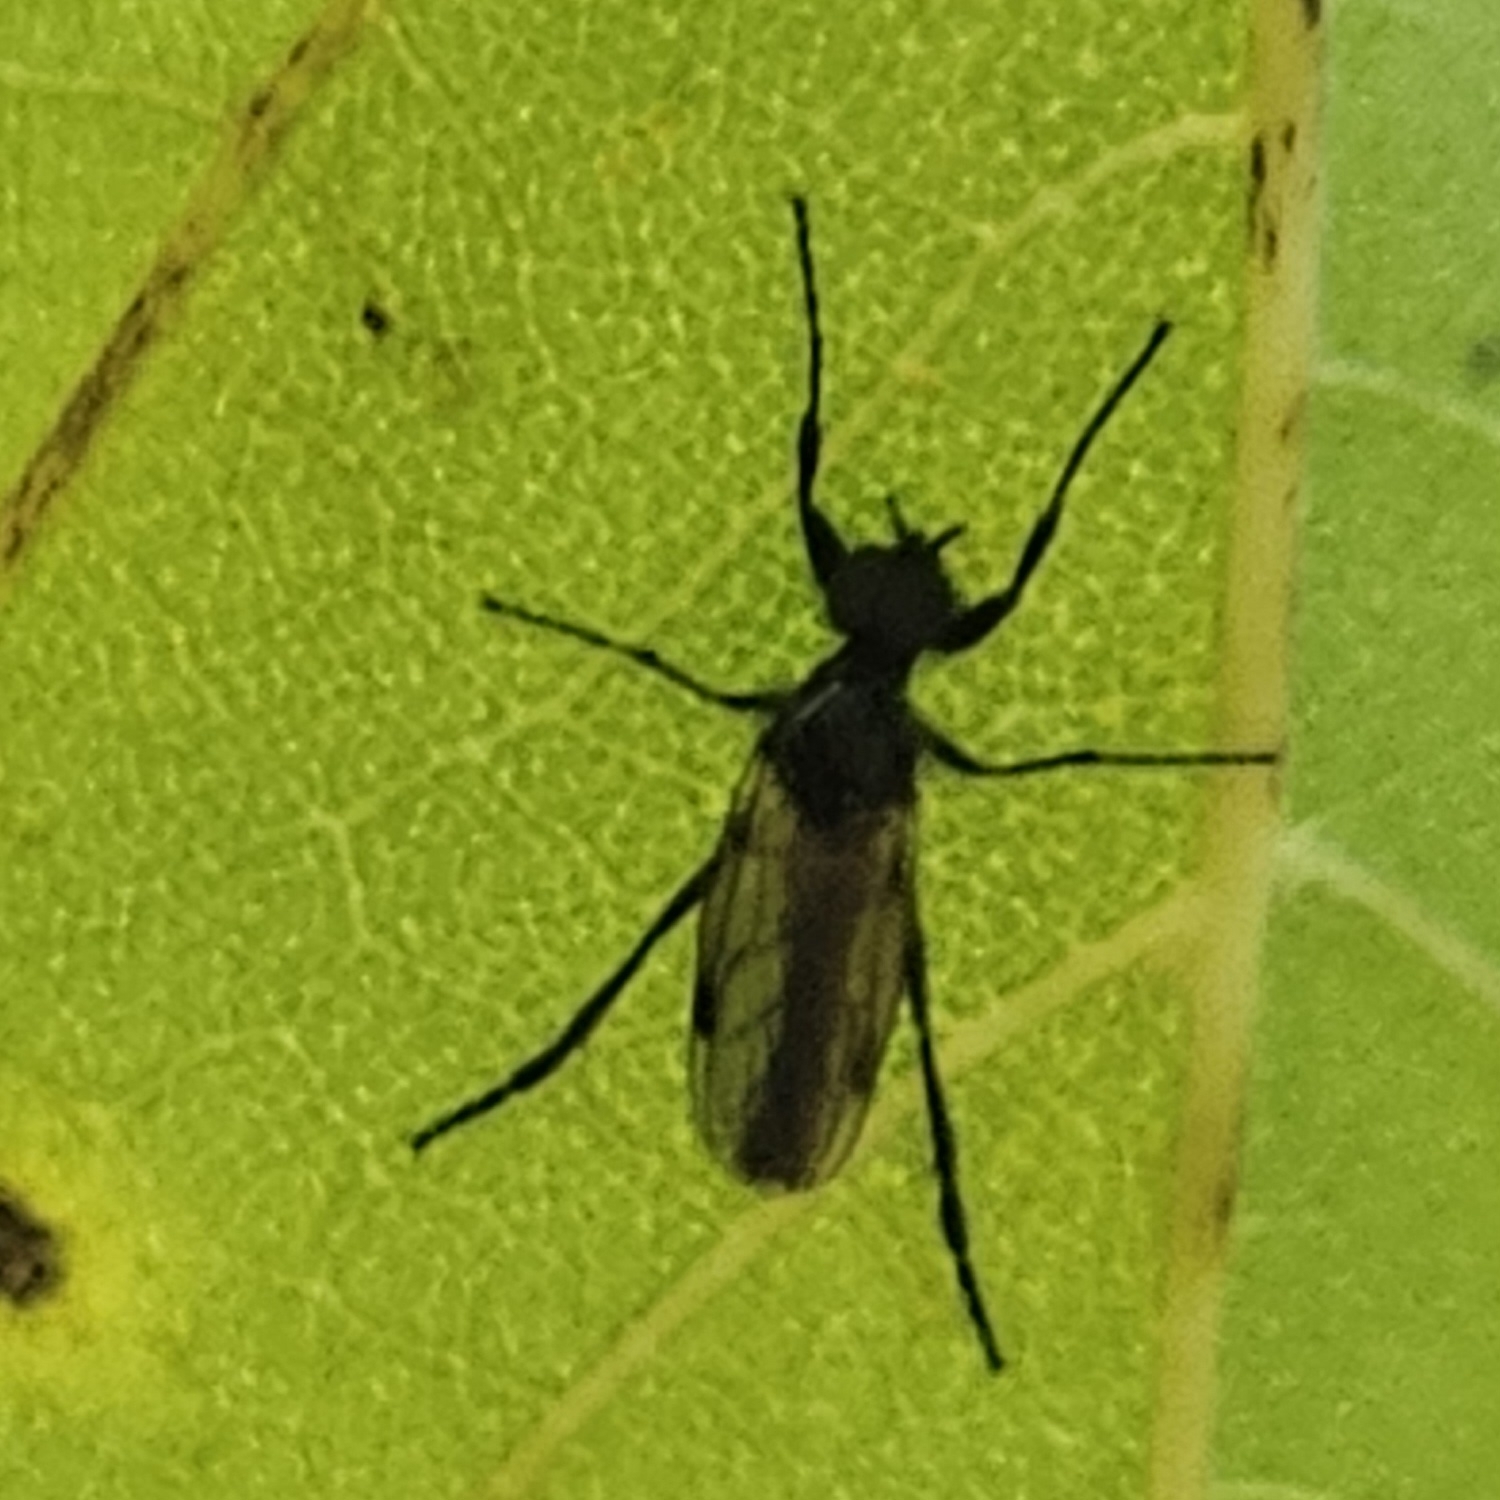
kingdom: Animalia
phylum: Arthropoda
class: Insecta
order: Diptera
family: Bibionidae
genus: Bibio
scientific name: Bibio
